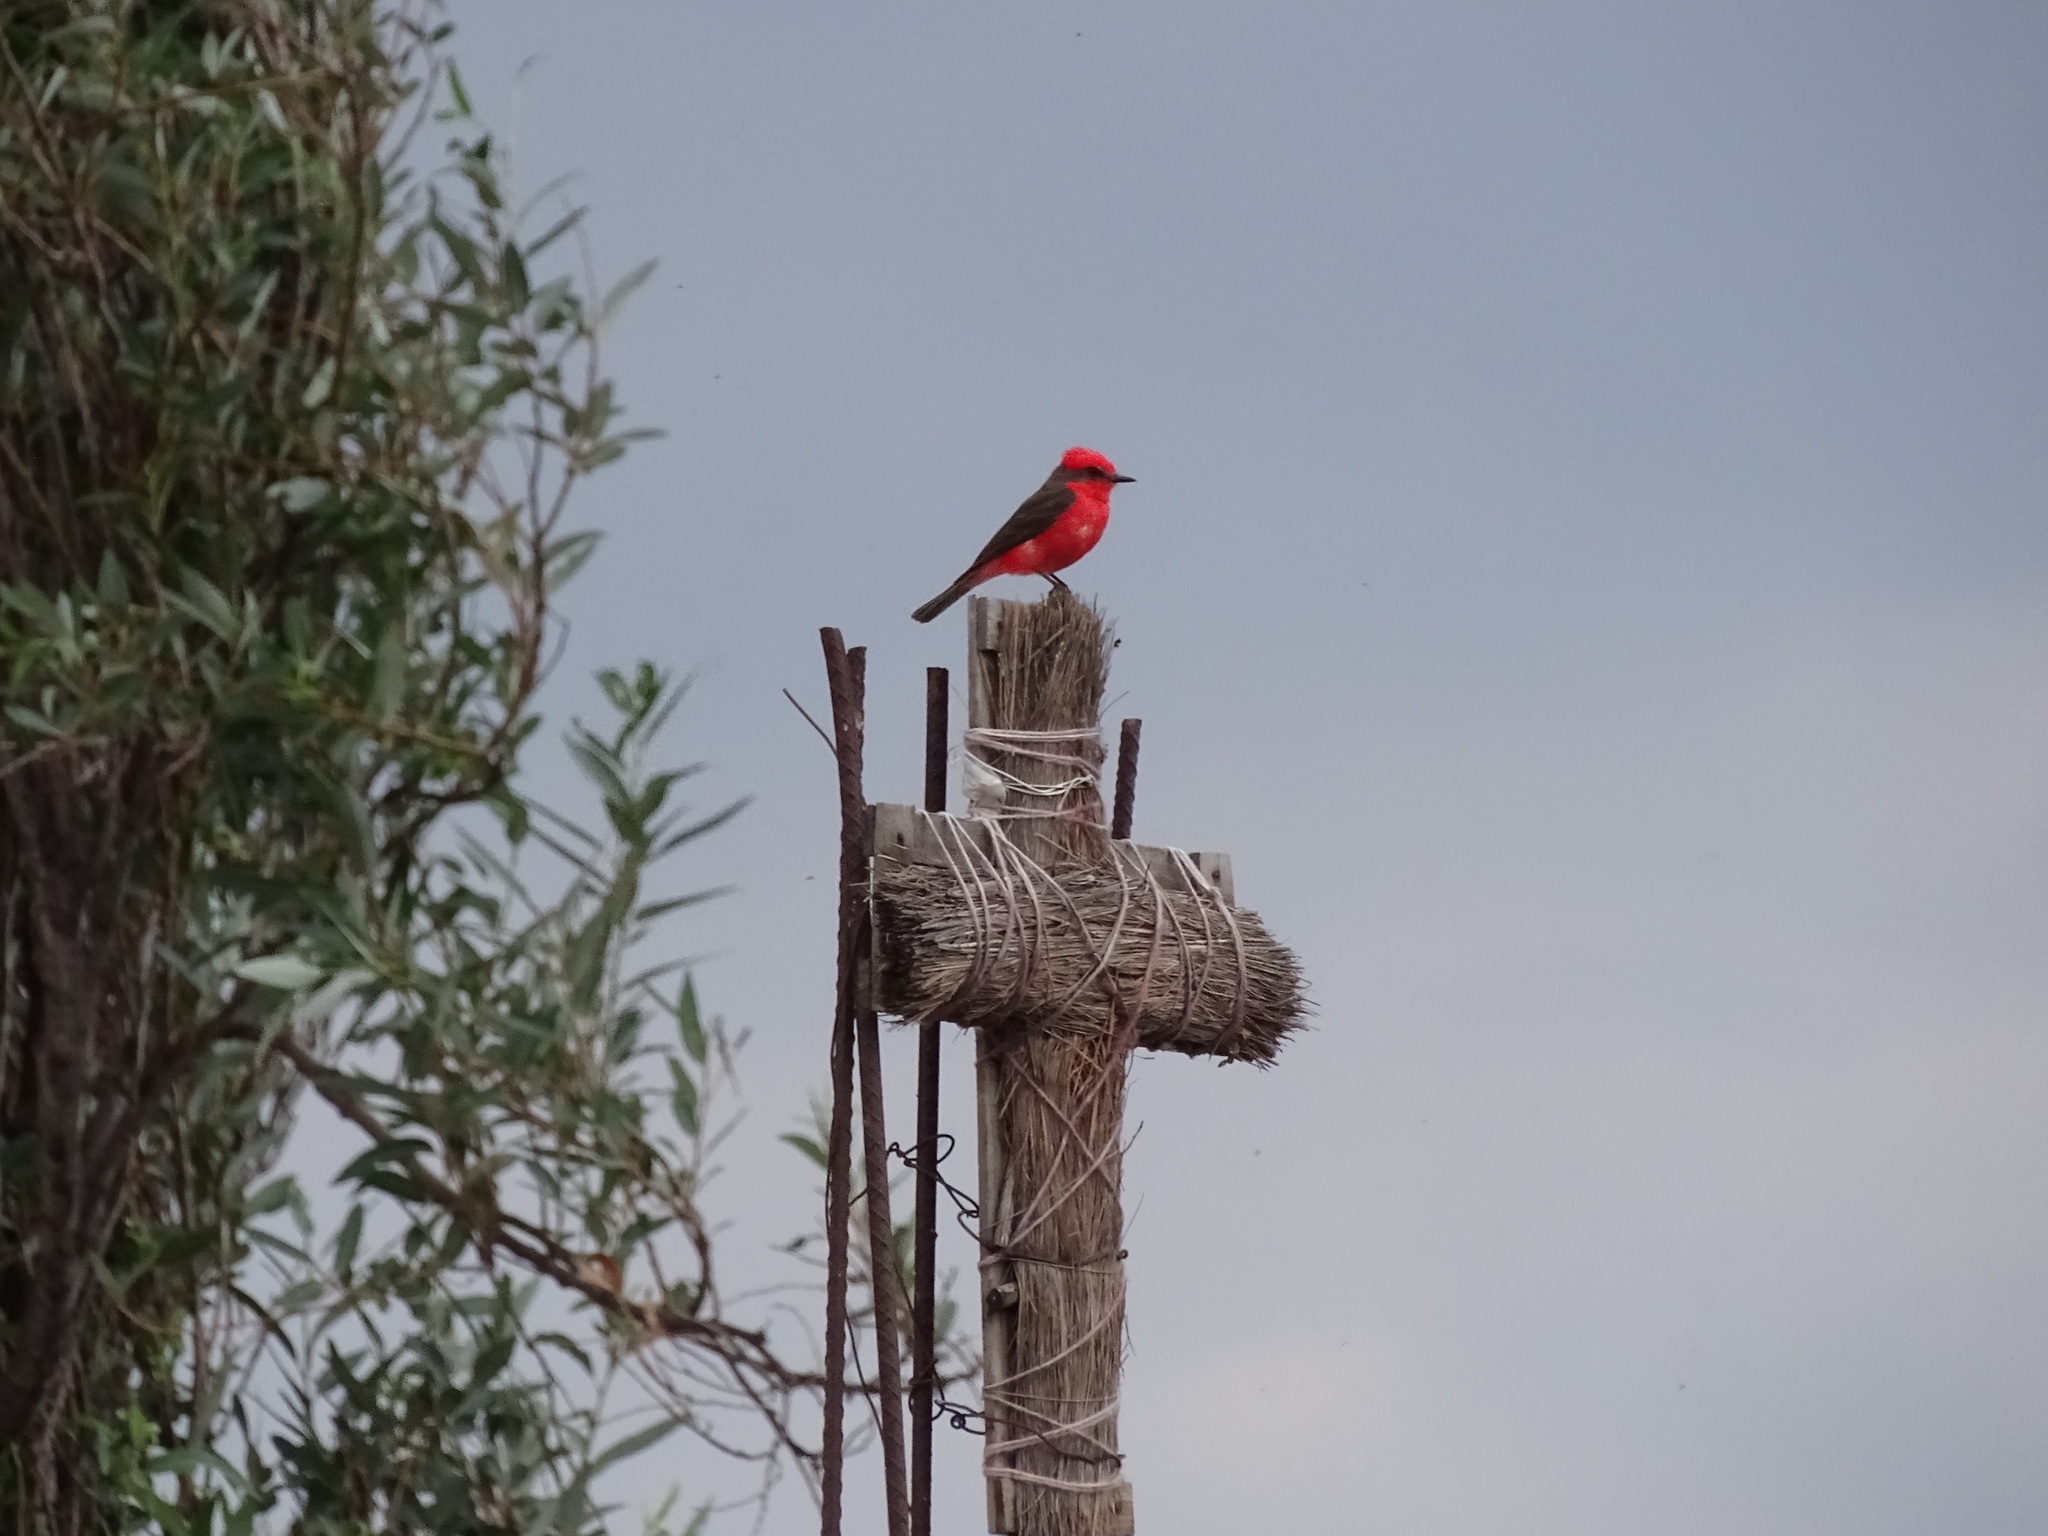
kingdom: Animalia
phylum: Chordata
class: Aves
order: Passeriformes
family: Tyrannidae
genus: Pyrocephalus
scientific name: Pyrocephalus rubinus
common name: Vermilion flycatcher
